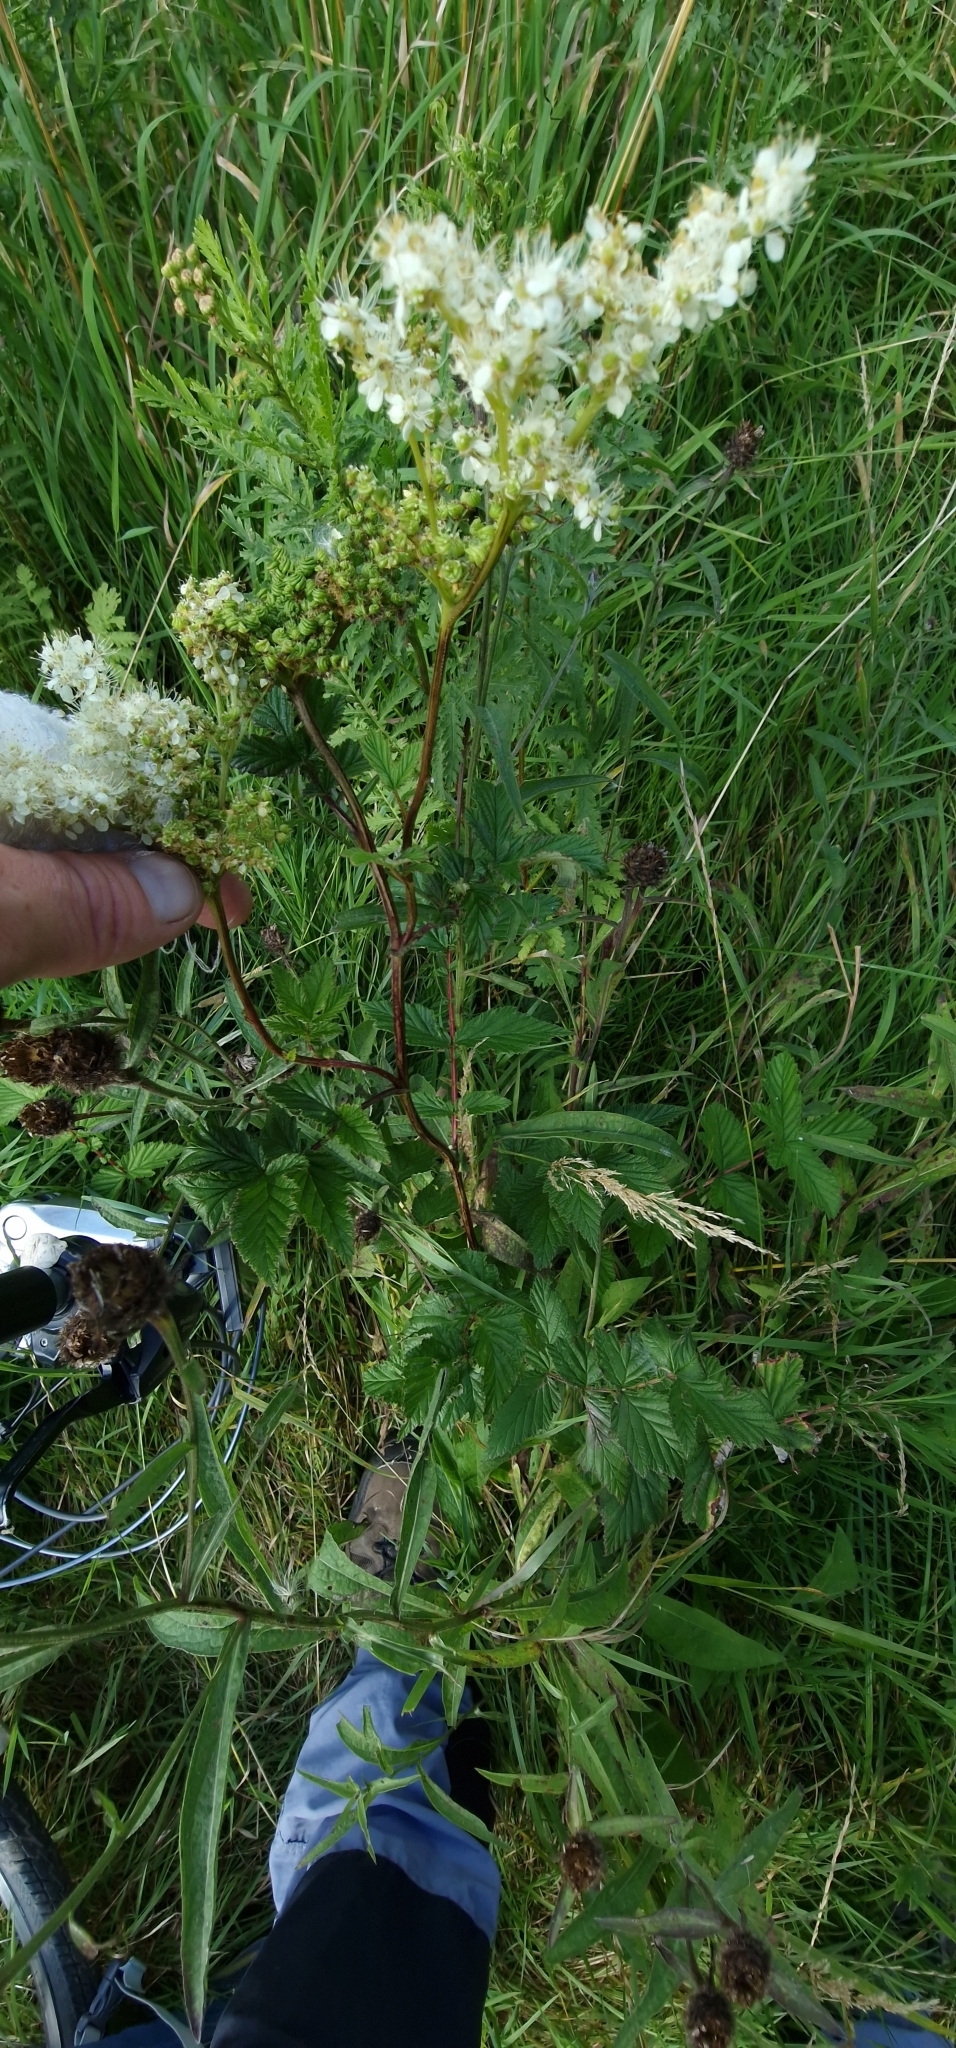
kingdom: Plantae
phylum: Tracheophyta
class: Magnoliopsida
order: Rosales
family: Rosaceae
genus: Filipendula
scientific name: Filipendula ulmaria
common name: Meadowsweet
